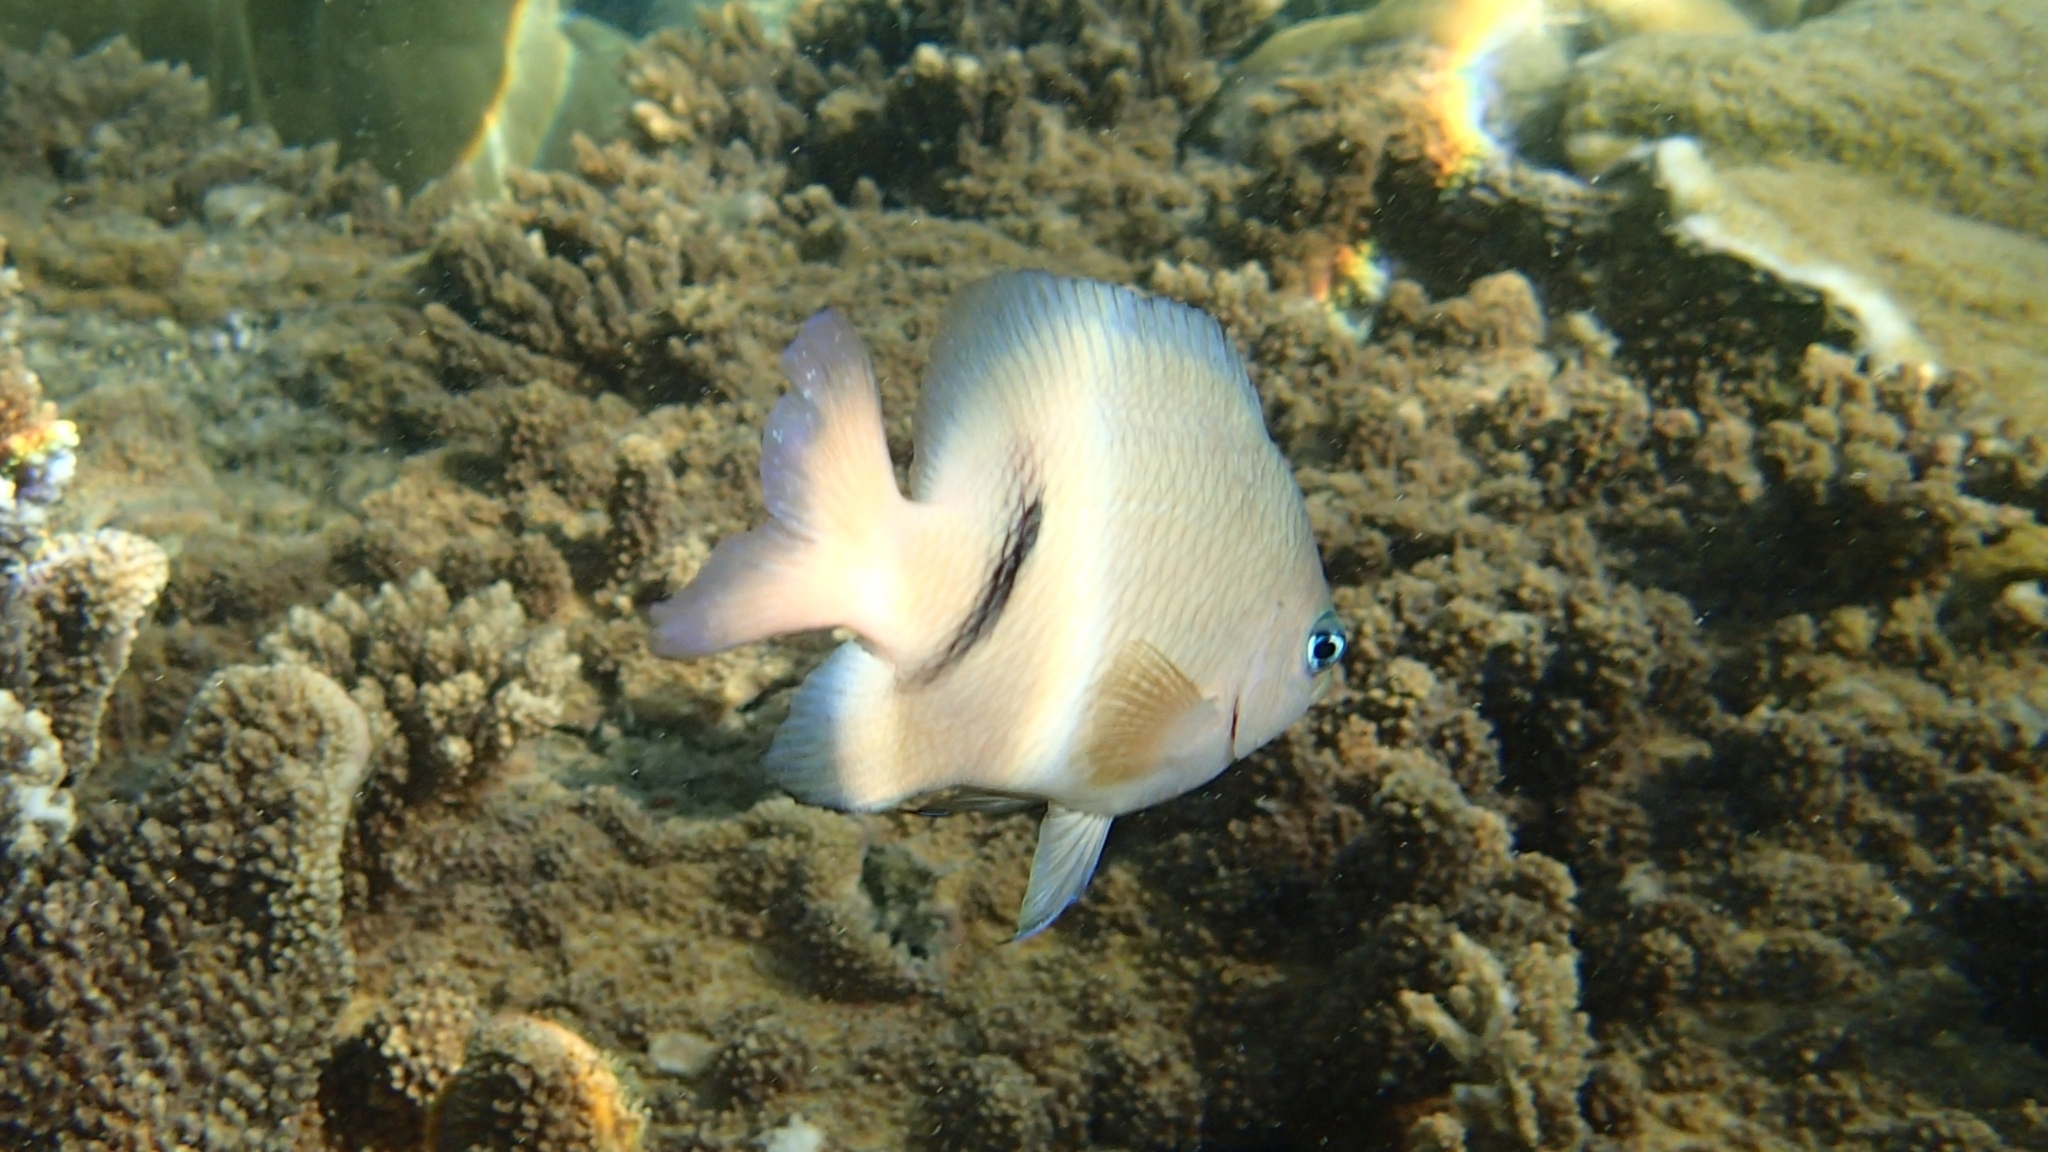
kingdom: Animalia
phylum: Chordata
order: Perciformes
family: Pomacentridae
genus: Plectroglyphidodon
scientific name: Plectroglyphidodon dickii
